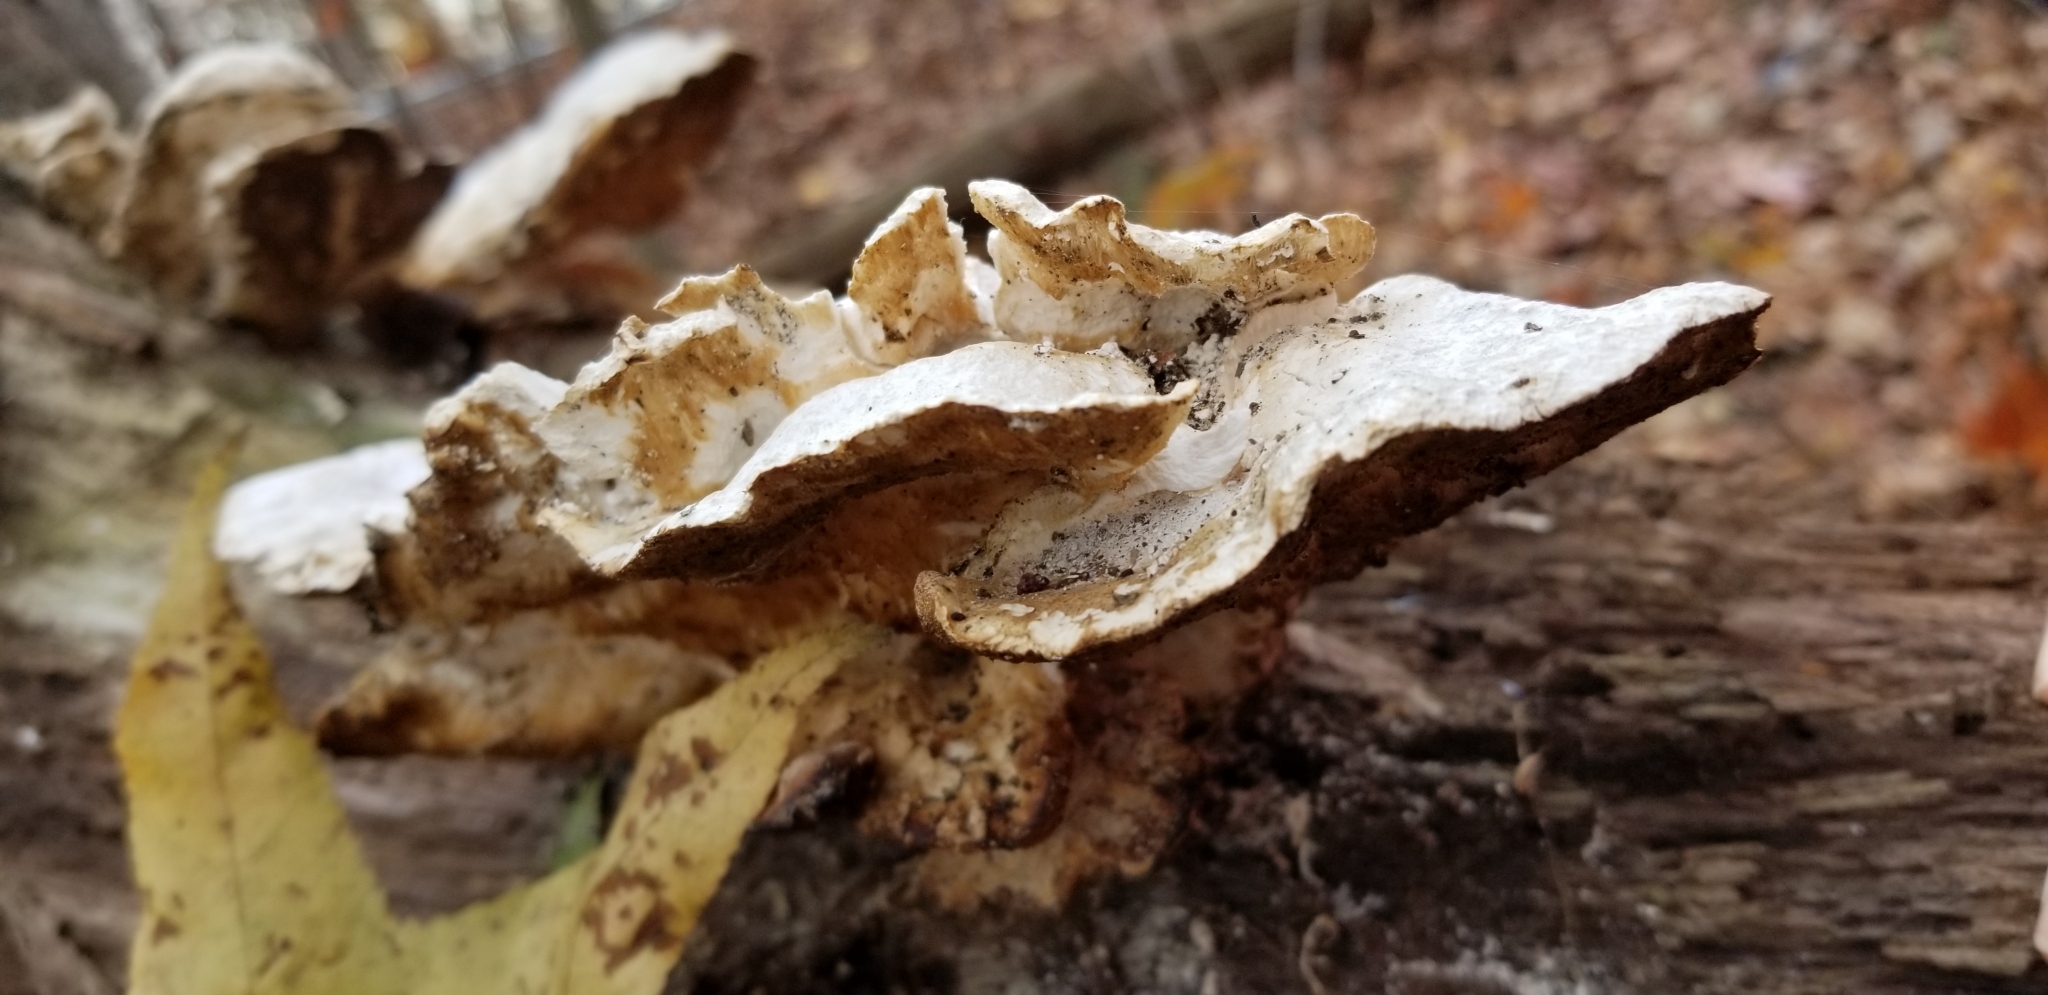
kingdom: Fungi
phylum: Basidiomycota
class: Agaricomycetes
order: Polyporales
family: Laetiporaceae
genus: Laetiporus
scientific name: Laetiporus sulphureus
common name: Chicken of the woods
